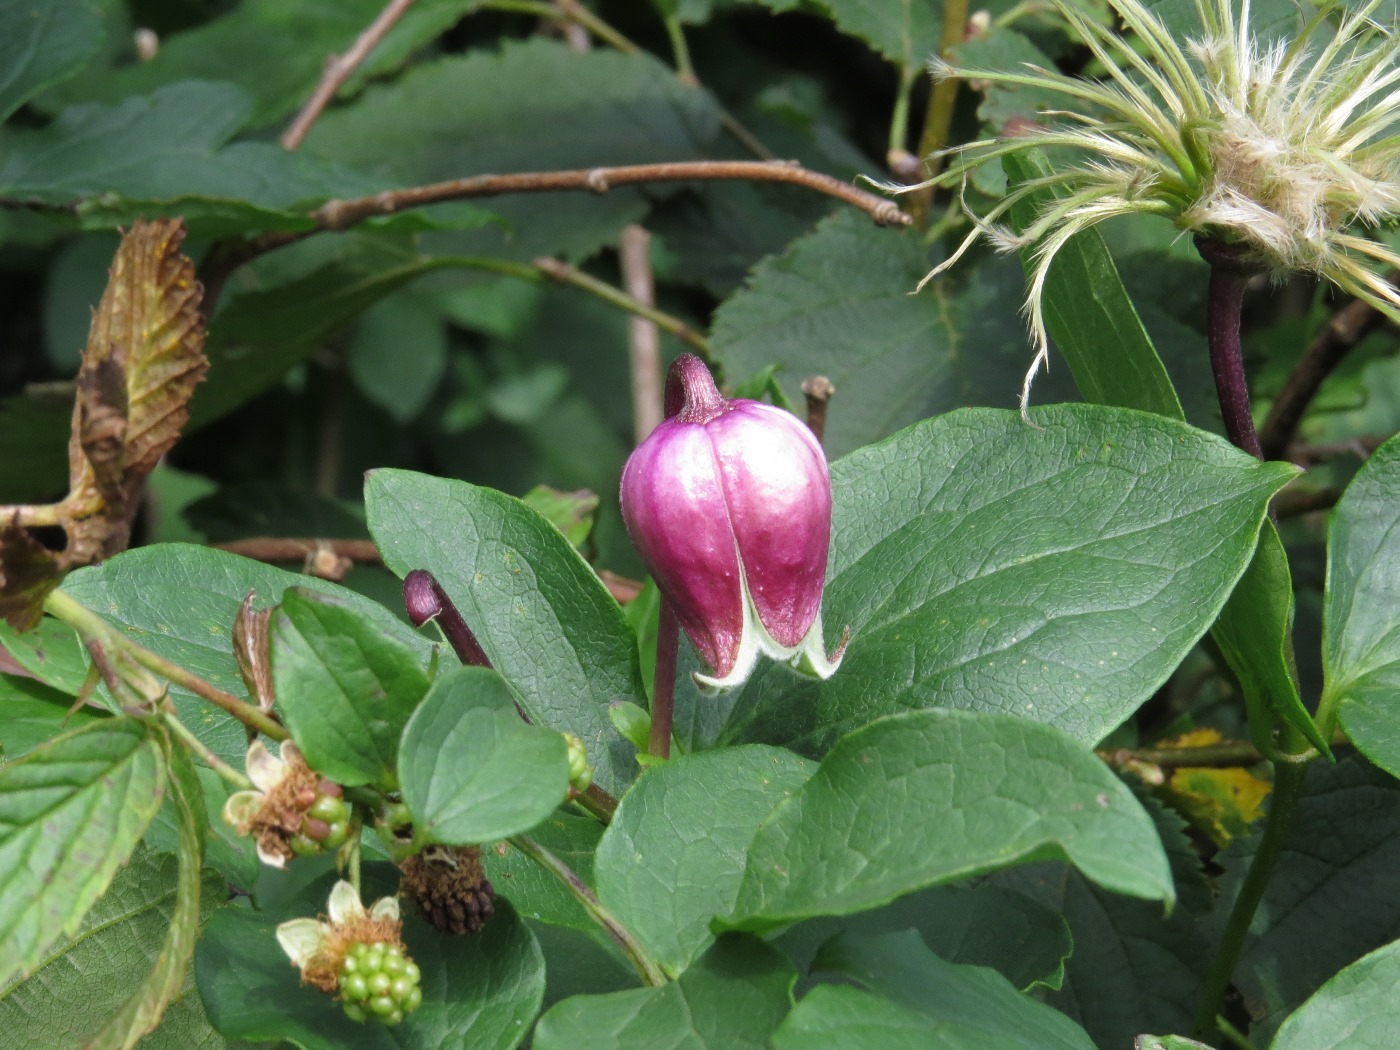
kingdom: Plantae
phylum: Tracheophyta
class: Magnoliopsida
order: Ranunculales
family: Ranunculaceae
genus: Clematis
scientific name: Clematis viorna
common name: Leather-flower
